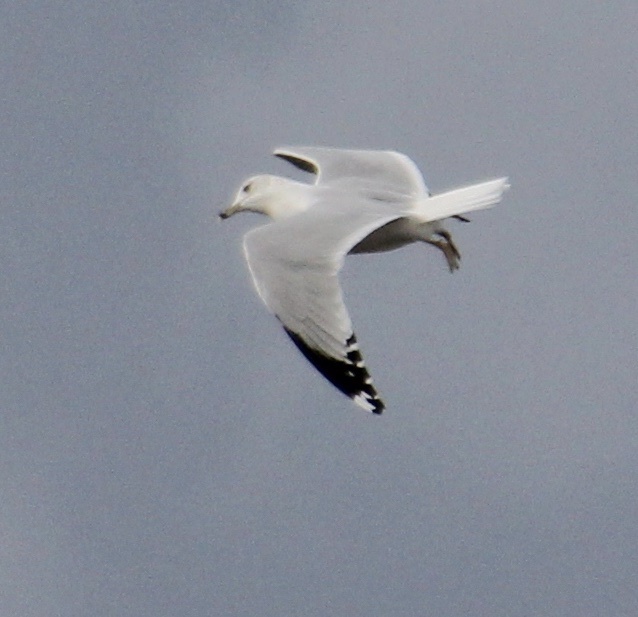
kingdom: Animalia
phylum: Chordata
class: Aves
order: Charadriiformes
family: Laridae
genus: Larus
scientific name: Larus delawarensis
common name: Ring-billed gull
